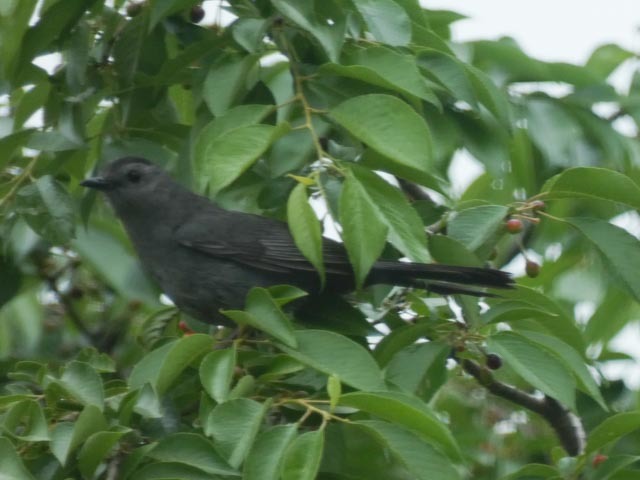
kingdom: Animalia
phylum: Chordata
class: Aves
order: Passeriformes
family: Mimidae
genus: Dumetella
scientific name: Dumetella carolinensis
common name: Gray catbird
